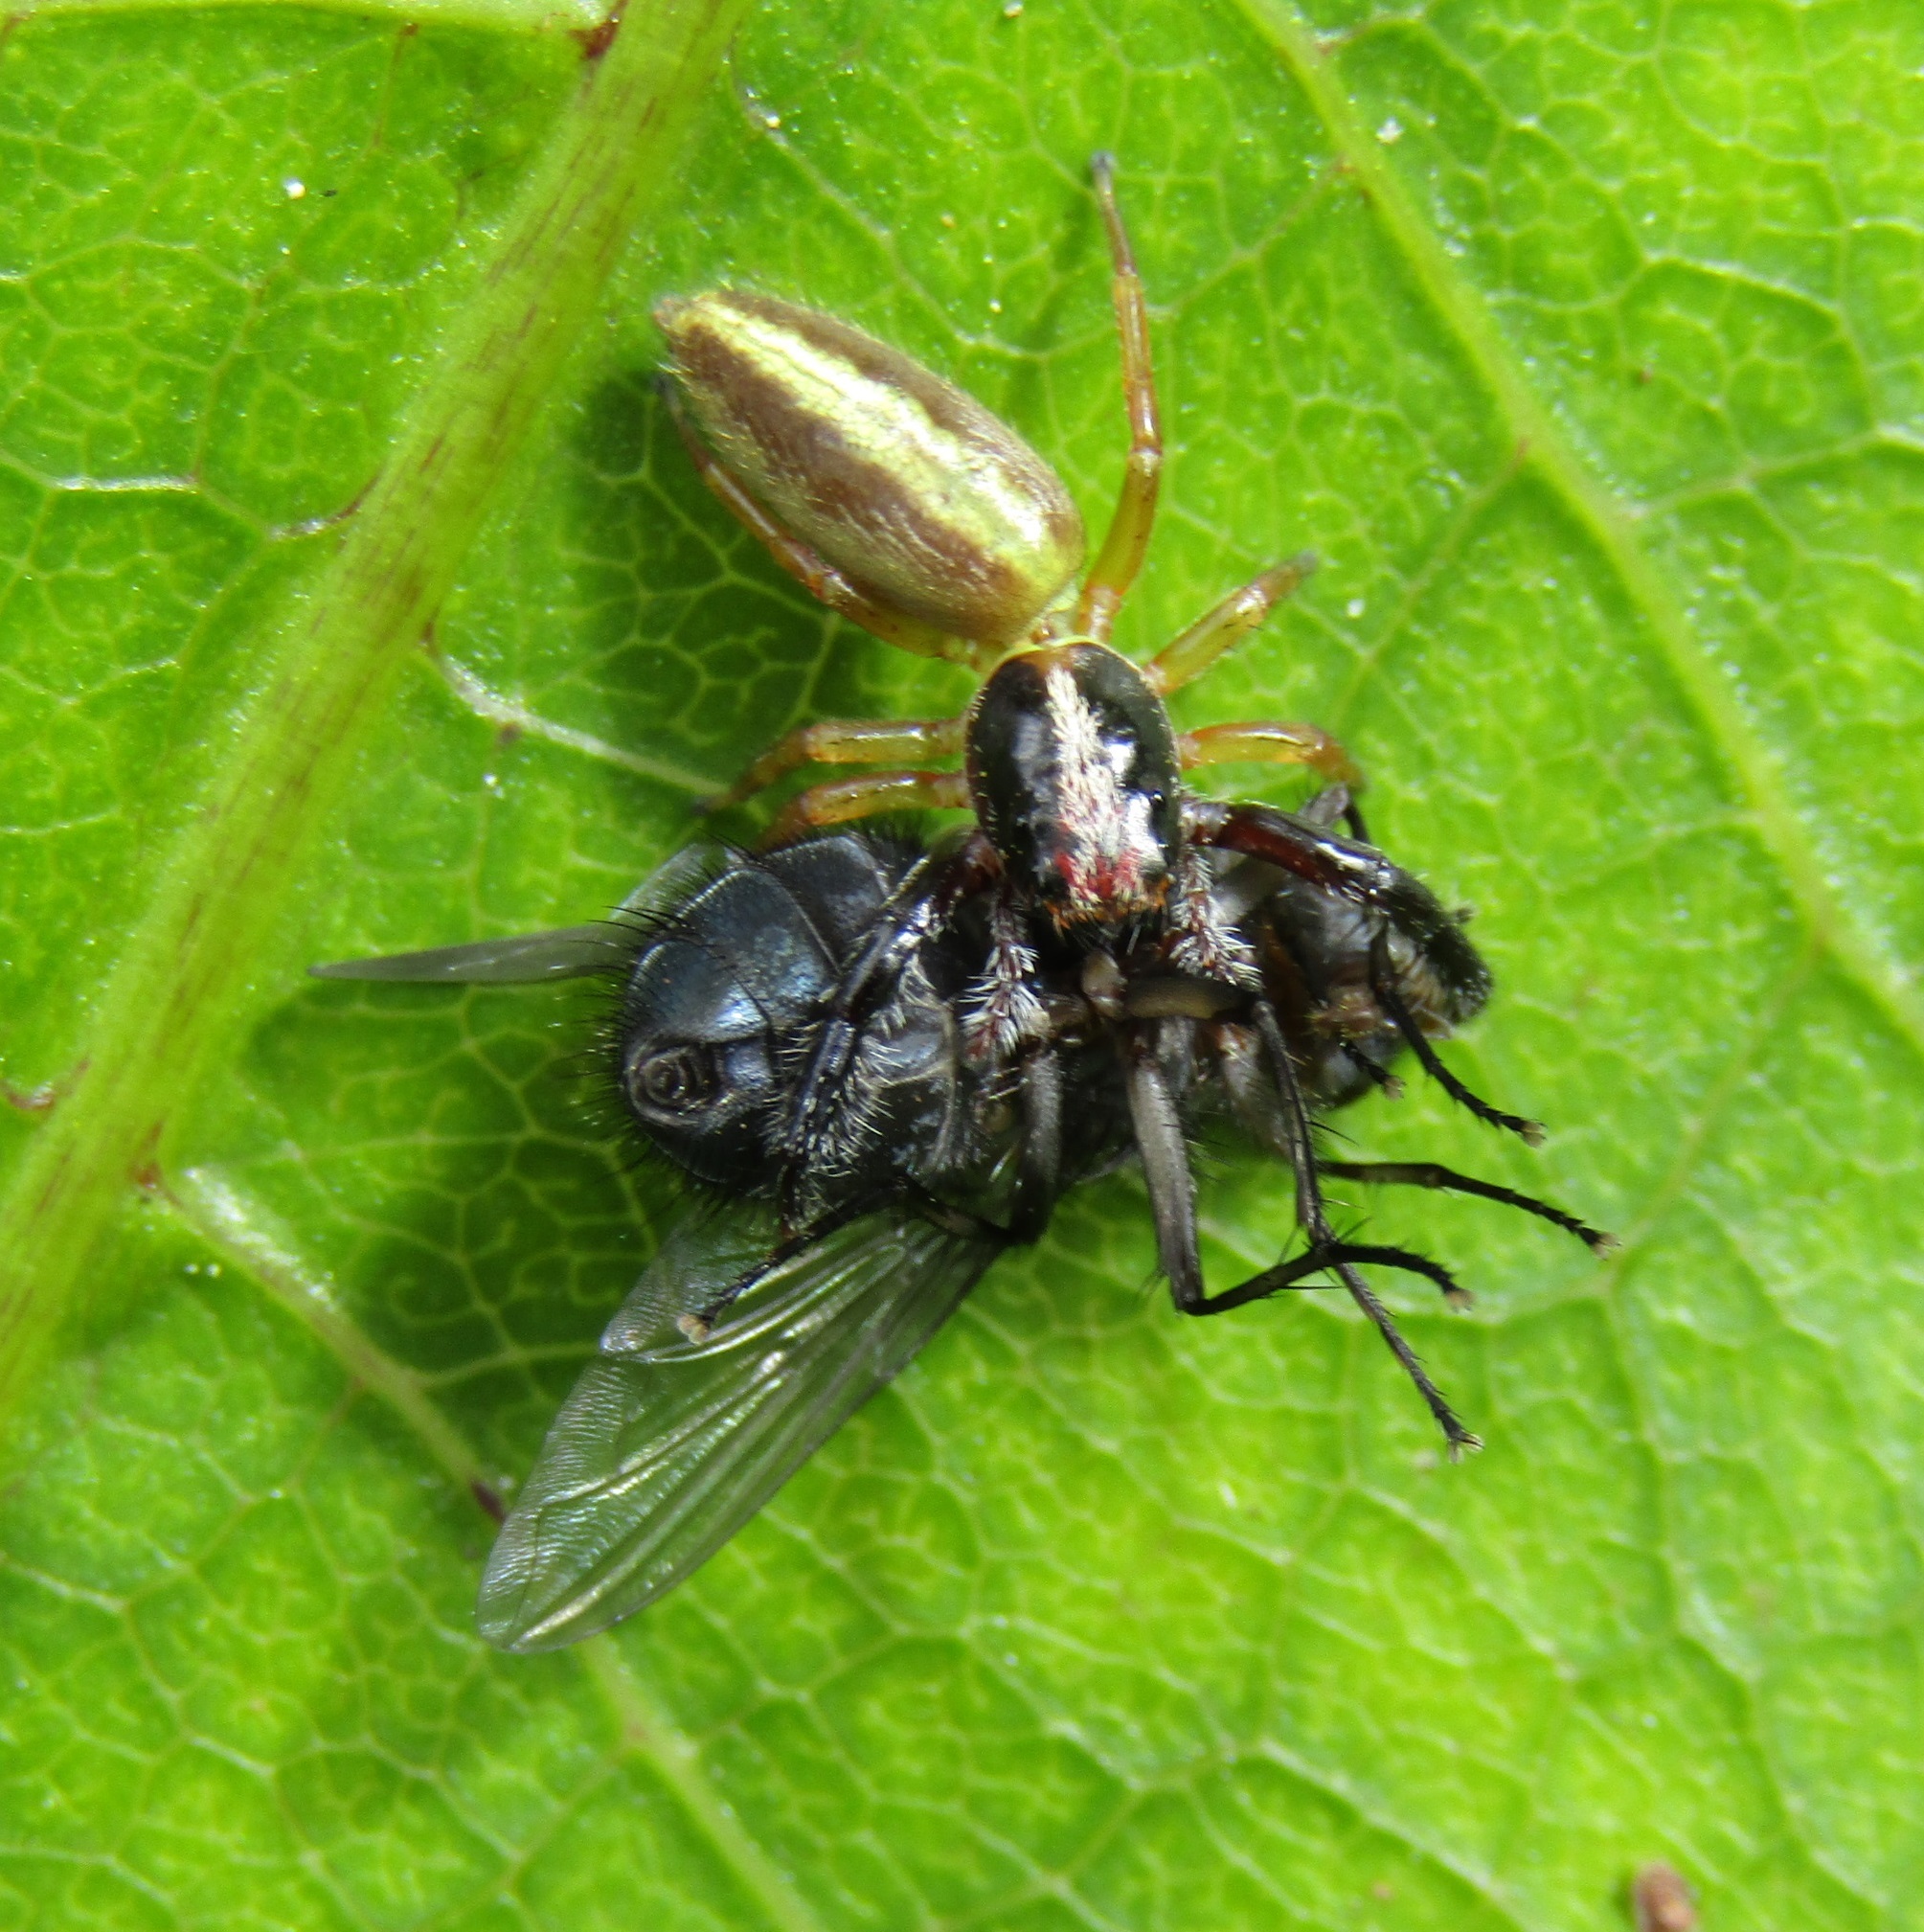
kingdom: Animalia
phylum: Arthropoda
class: Arachnida
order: Araneae
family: Salticidae
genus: Trite
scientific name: Trite planiceps
